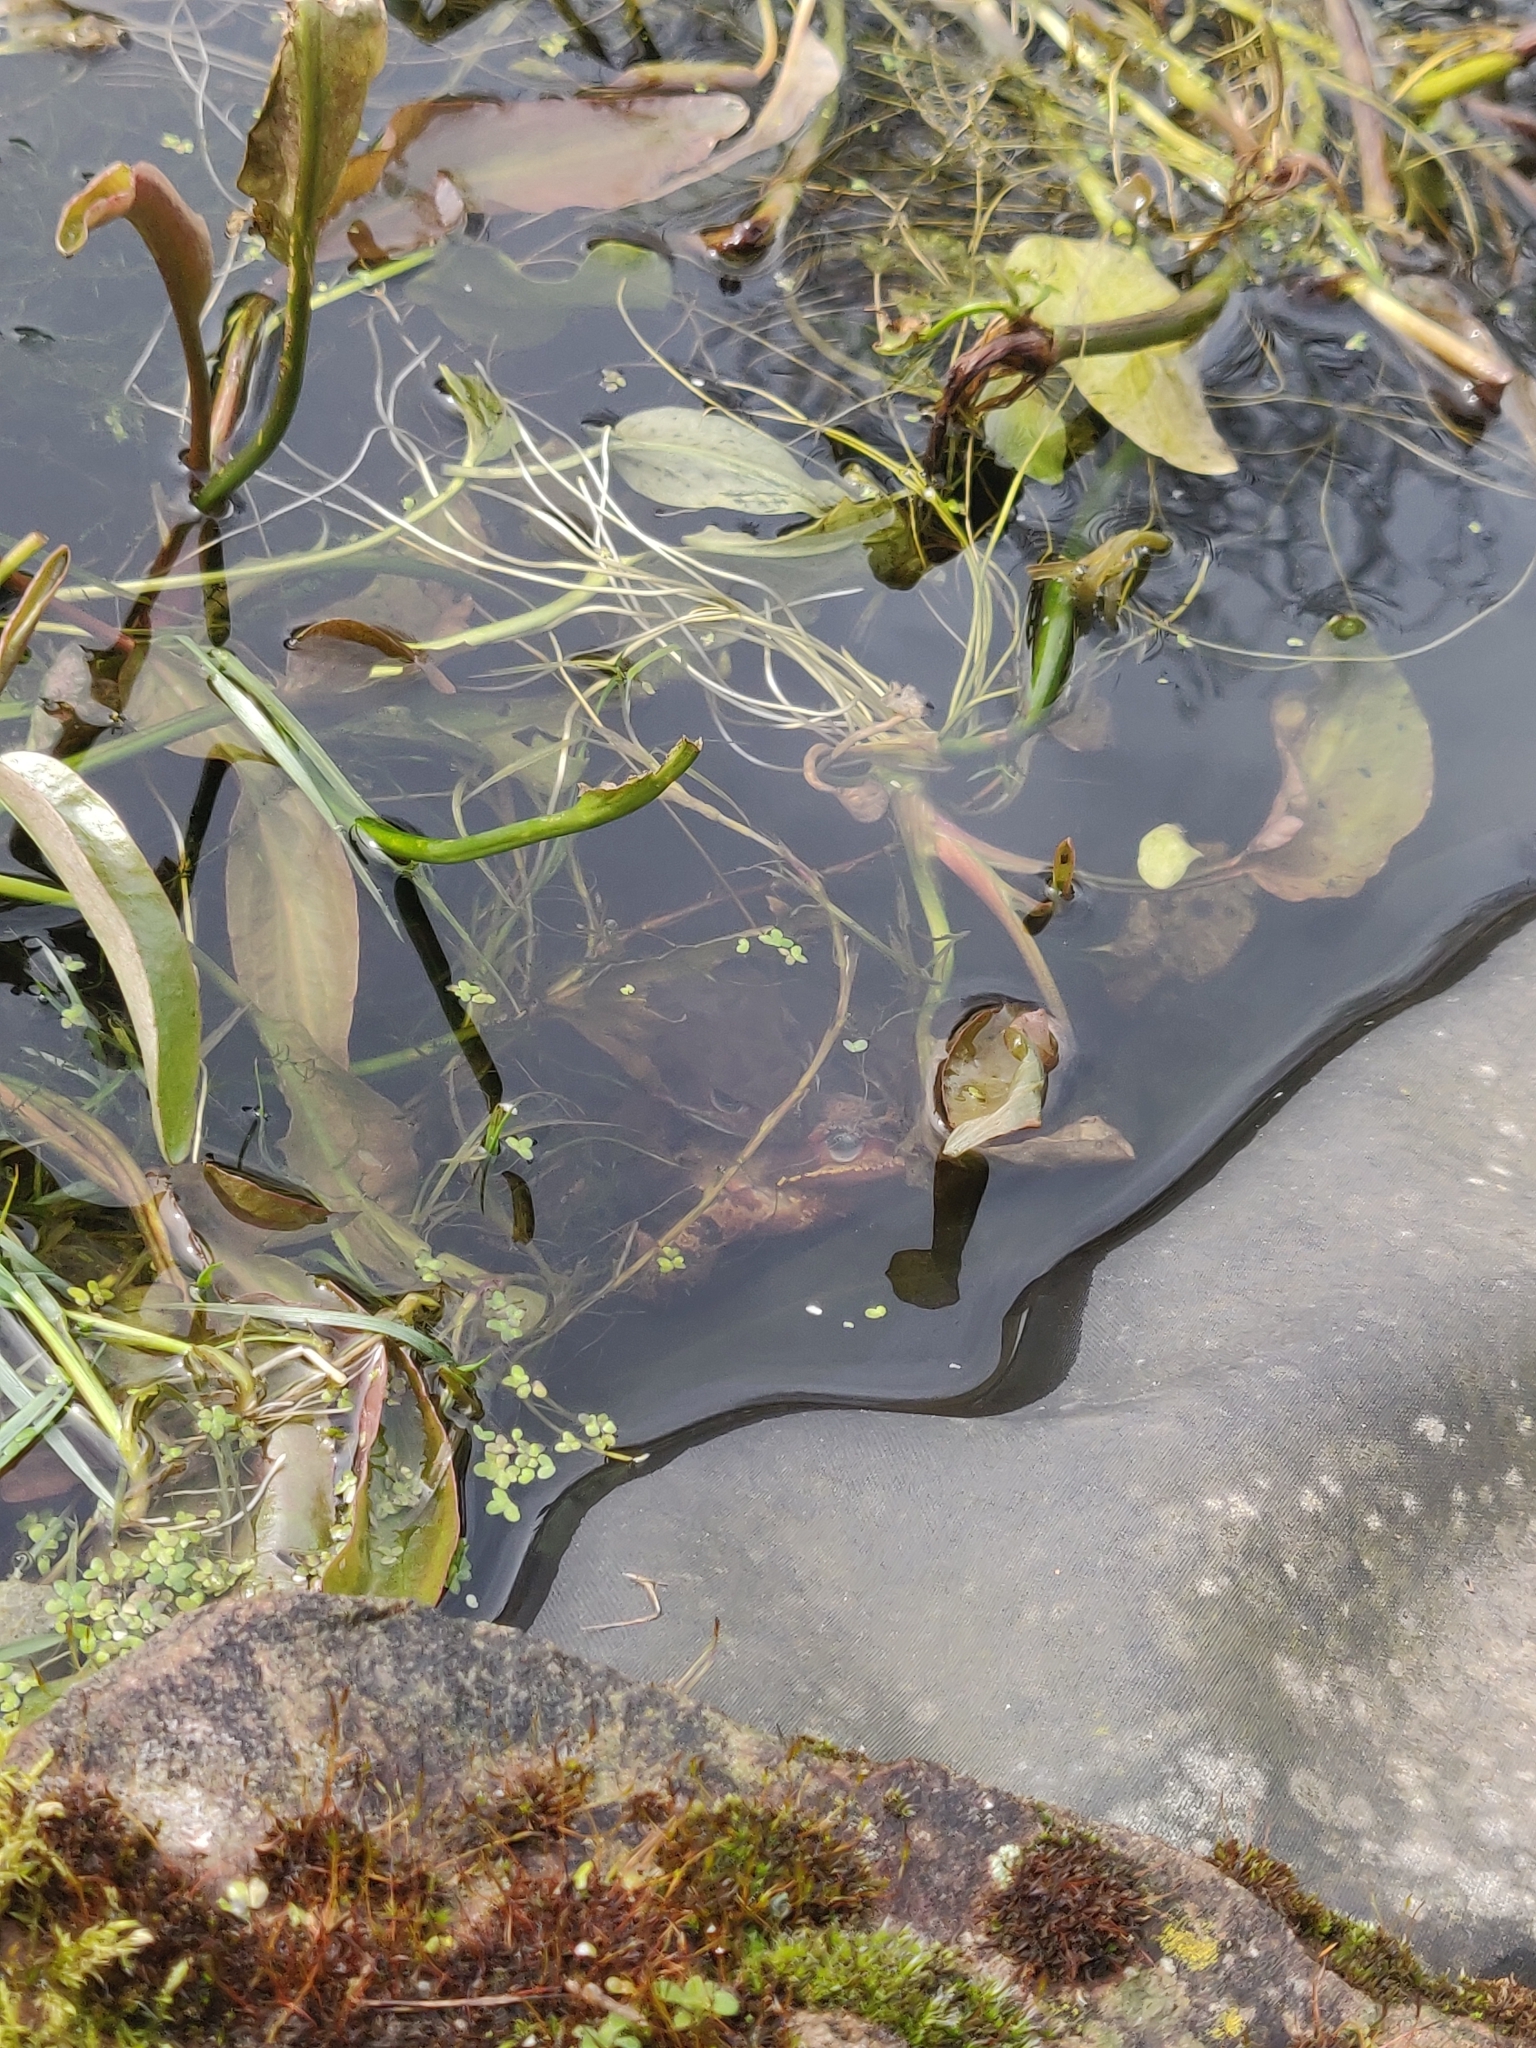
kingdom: Animalia
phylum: Chordata
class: Amphibia
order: Anura
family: Ranidae
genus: Rana
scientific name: Rana temporaria
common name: Common frog
